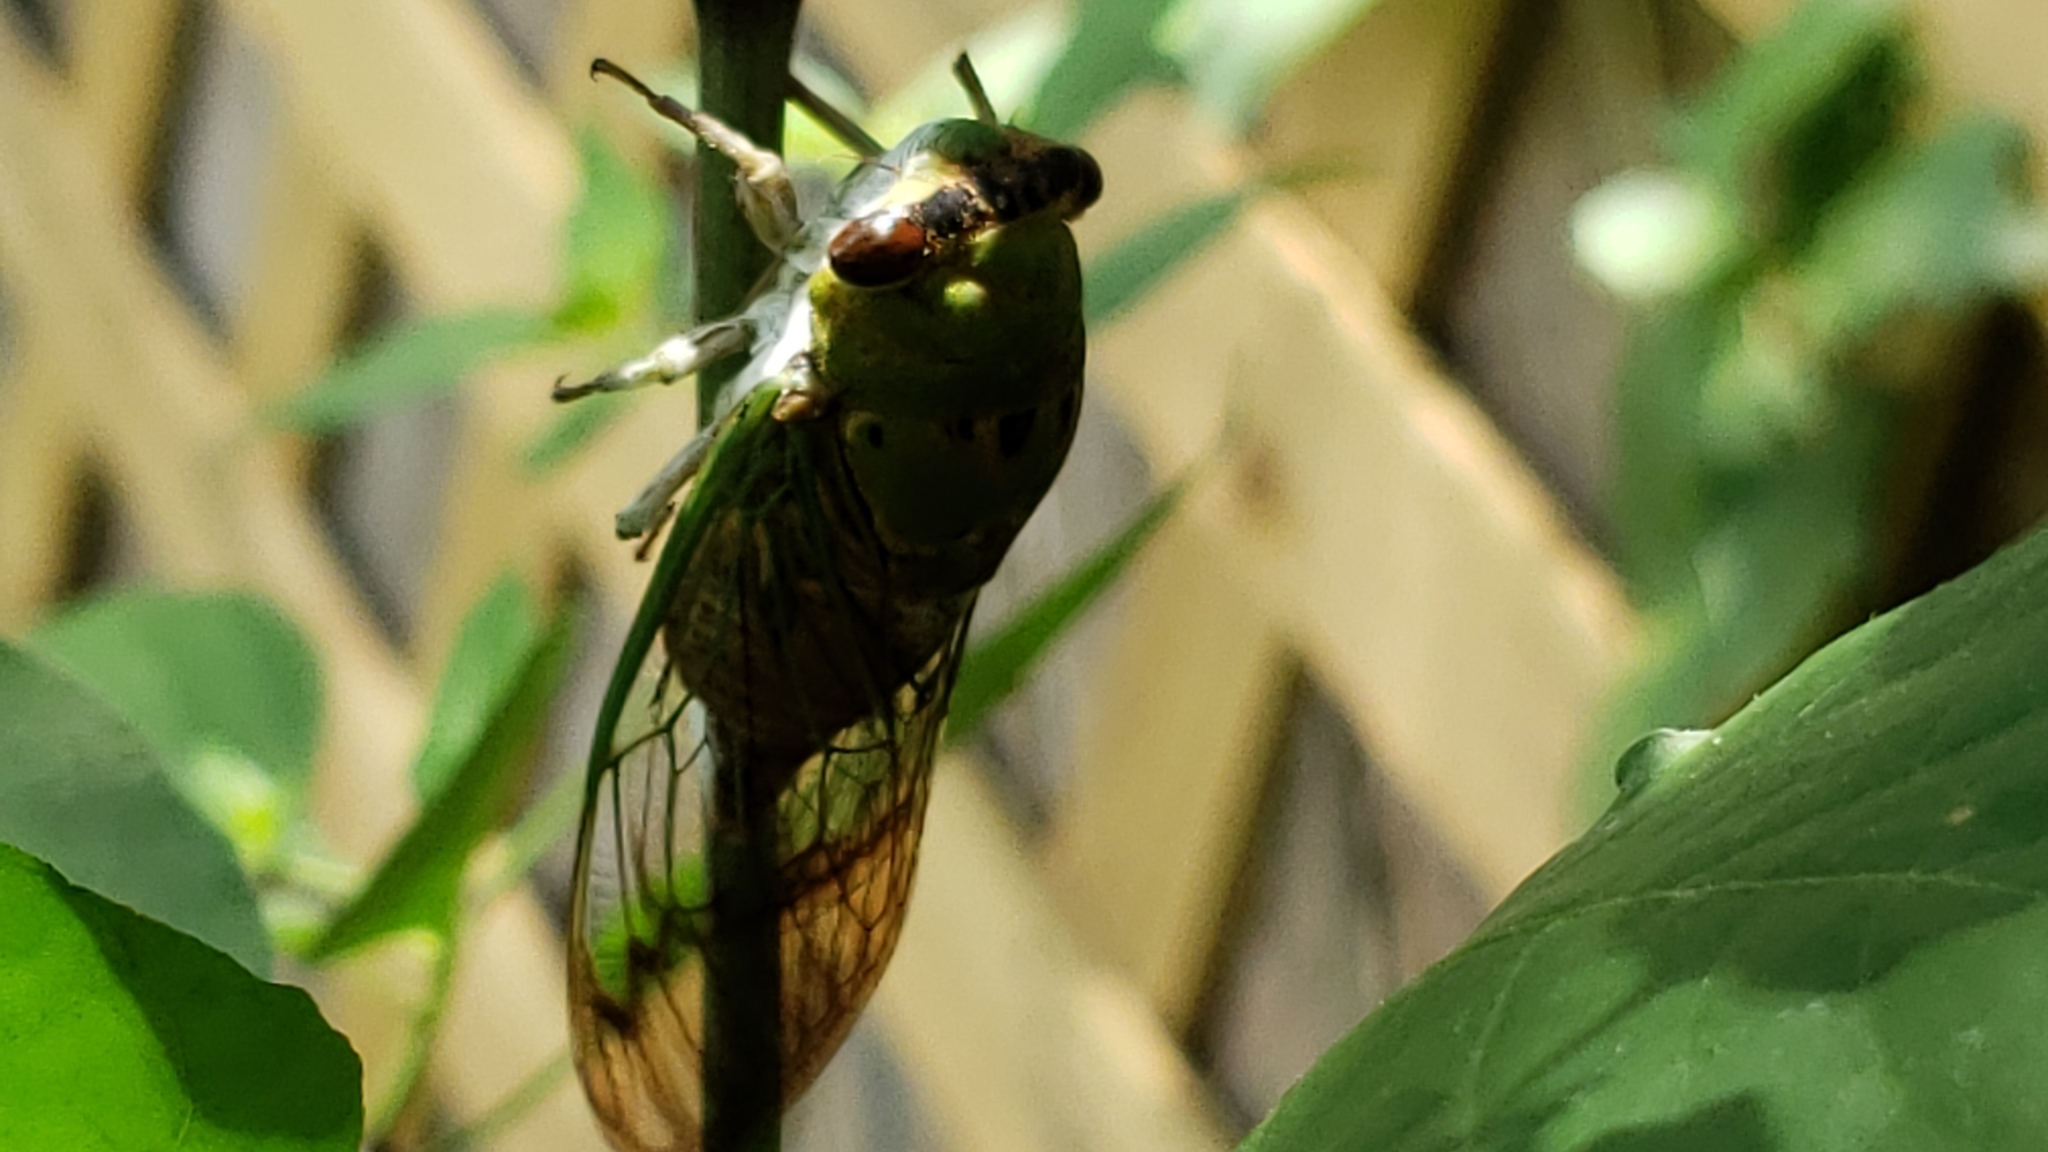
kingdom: Animalia
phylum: Arthropoda
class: Insecta
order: Hemiptera
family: Cicadidae
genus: Neotibicen
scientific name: Neotibicen superbus
